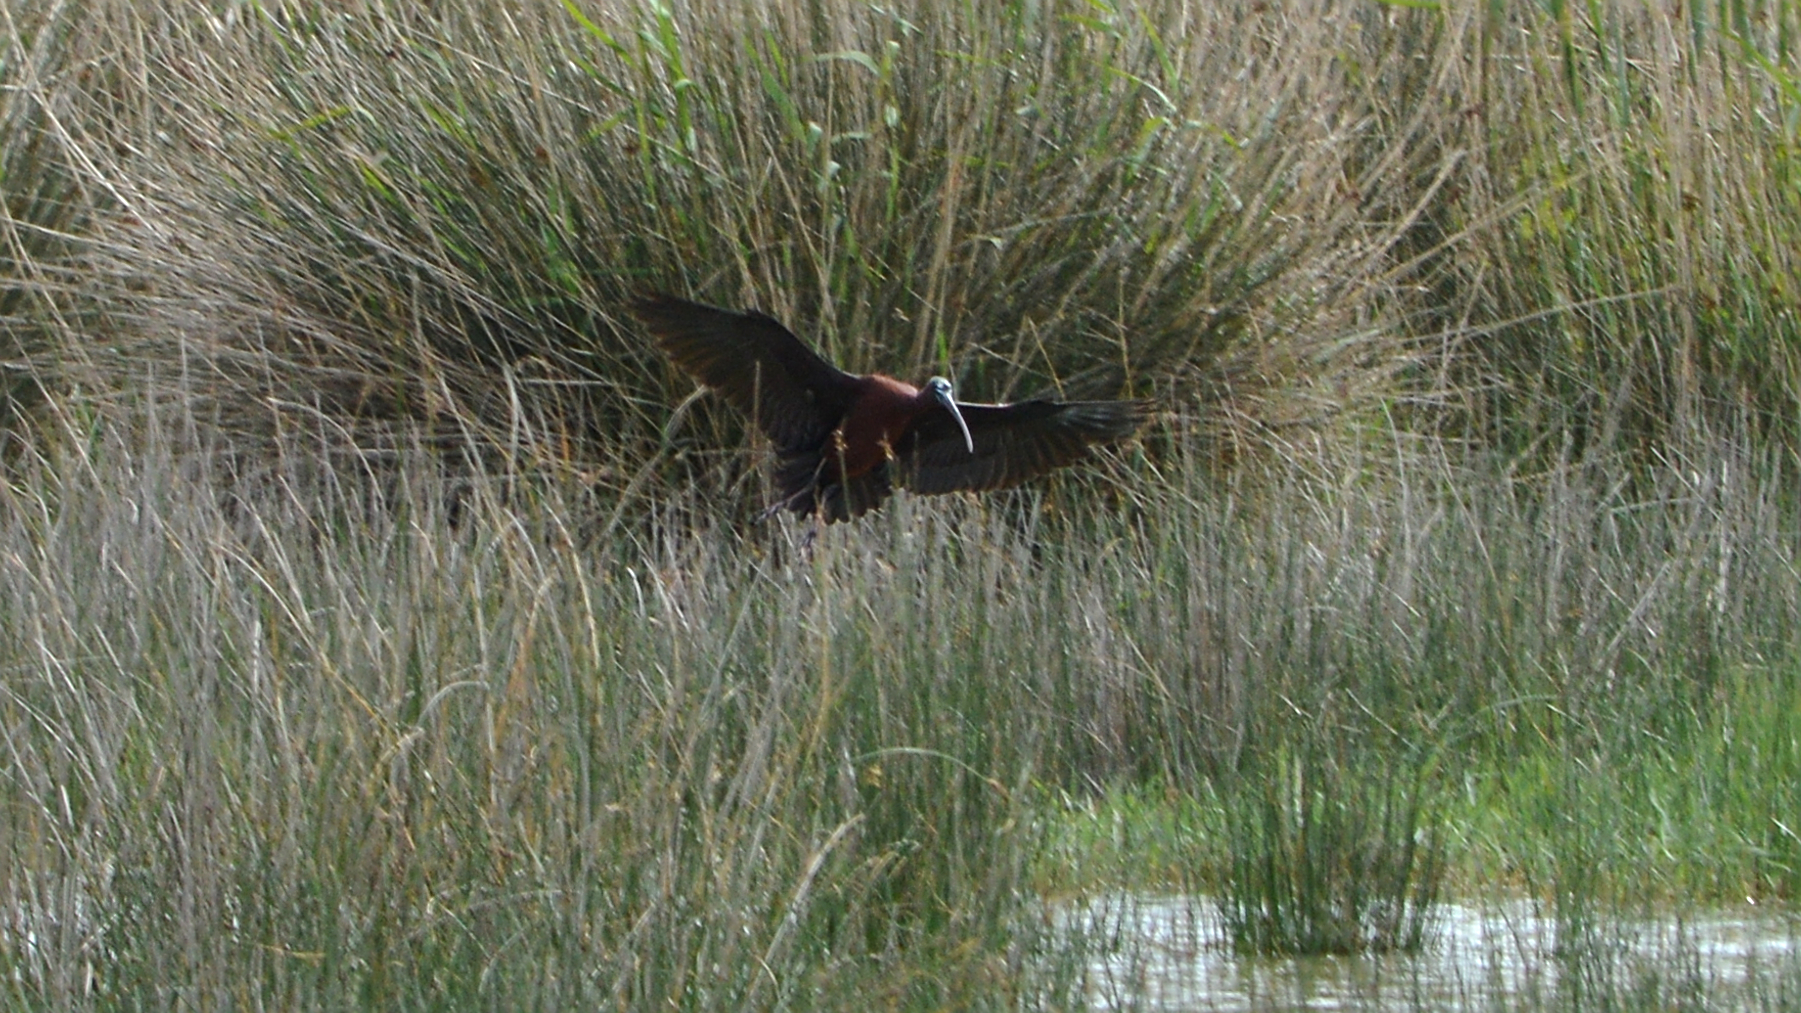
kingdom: Animalia
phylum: Chordata
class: Aves
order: Pelecaniformes
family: Threskiornithidae
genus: Plegadis
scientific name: Plegadis falcinellus
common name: Glossy ibis
